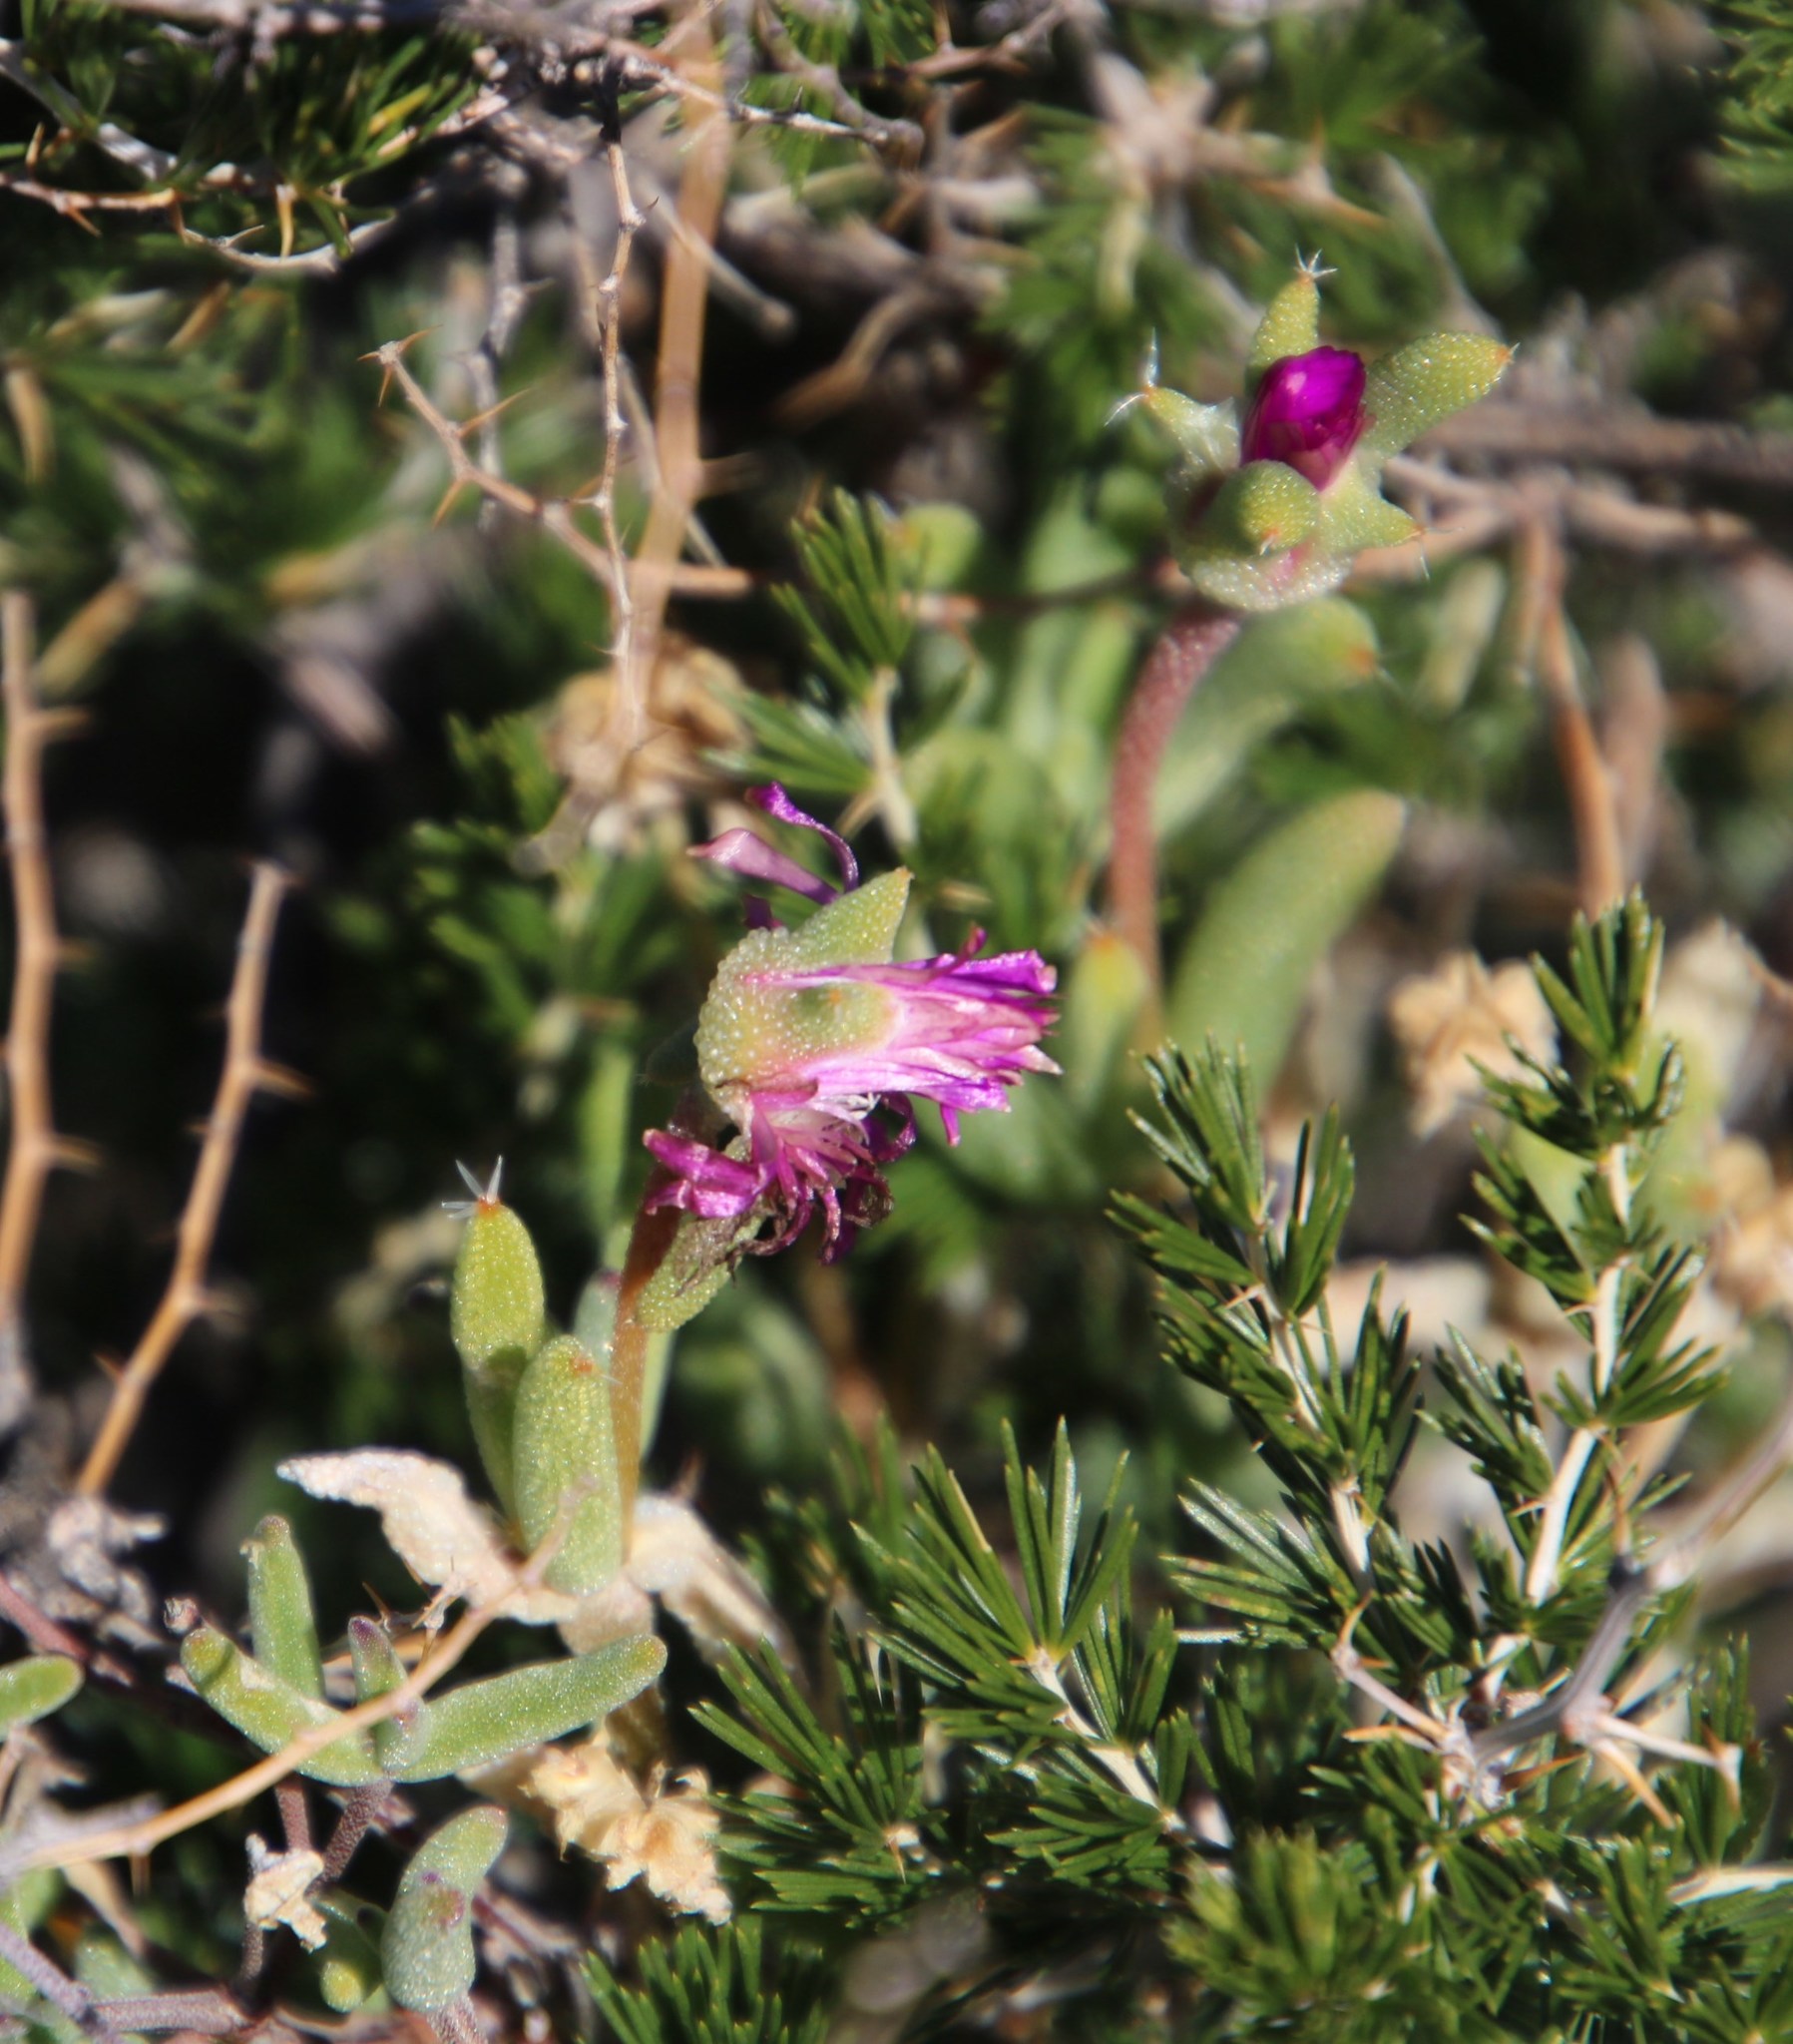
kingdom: Plantae
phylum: Tracheophyta
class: Magnoliopsida
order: Caryophyllales
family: Aizoaceae
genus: Trichodiadema
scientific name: Trichodiadema pomeridianum
